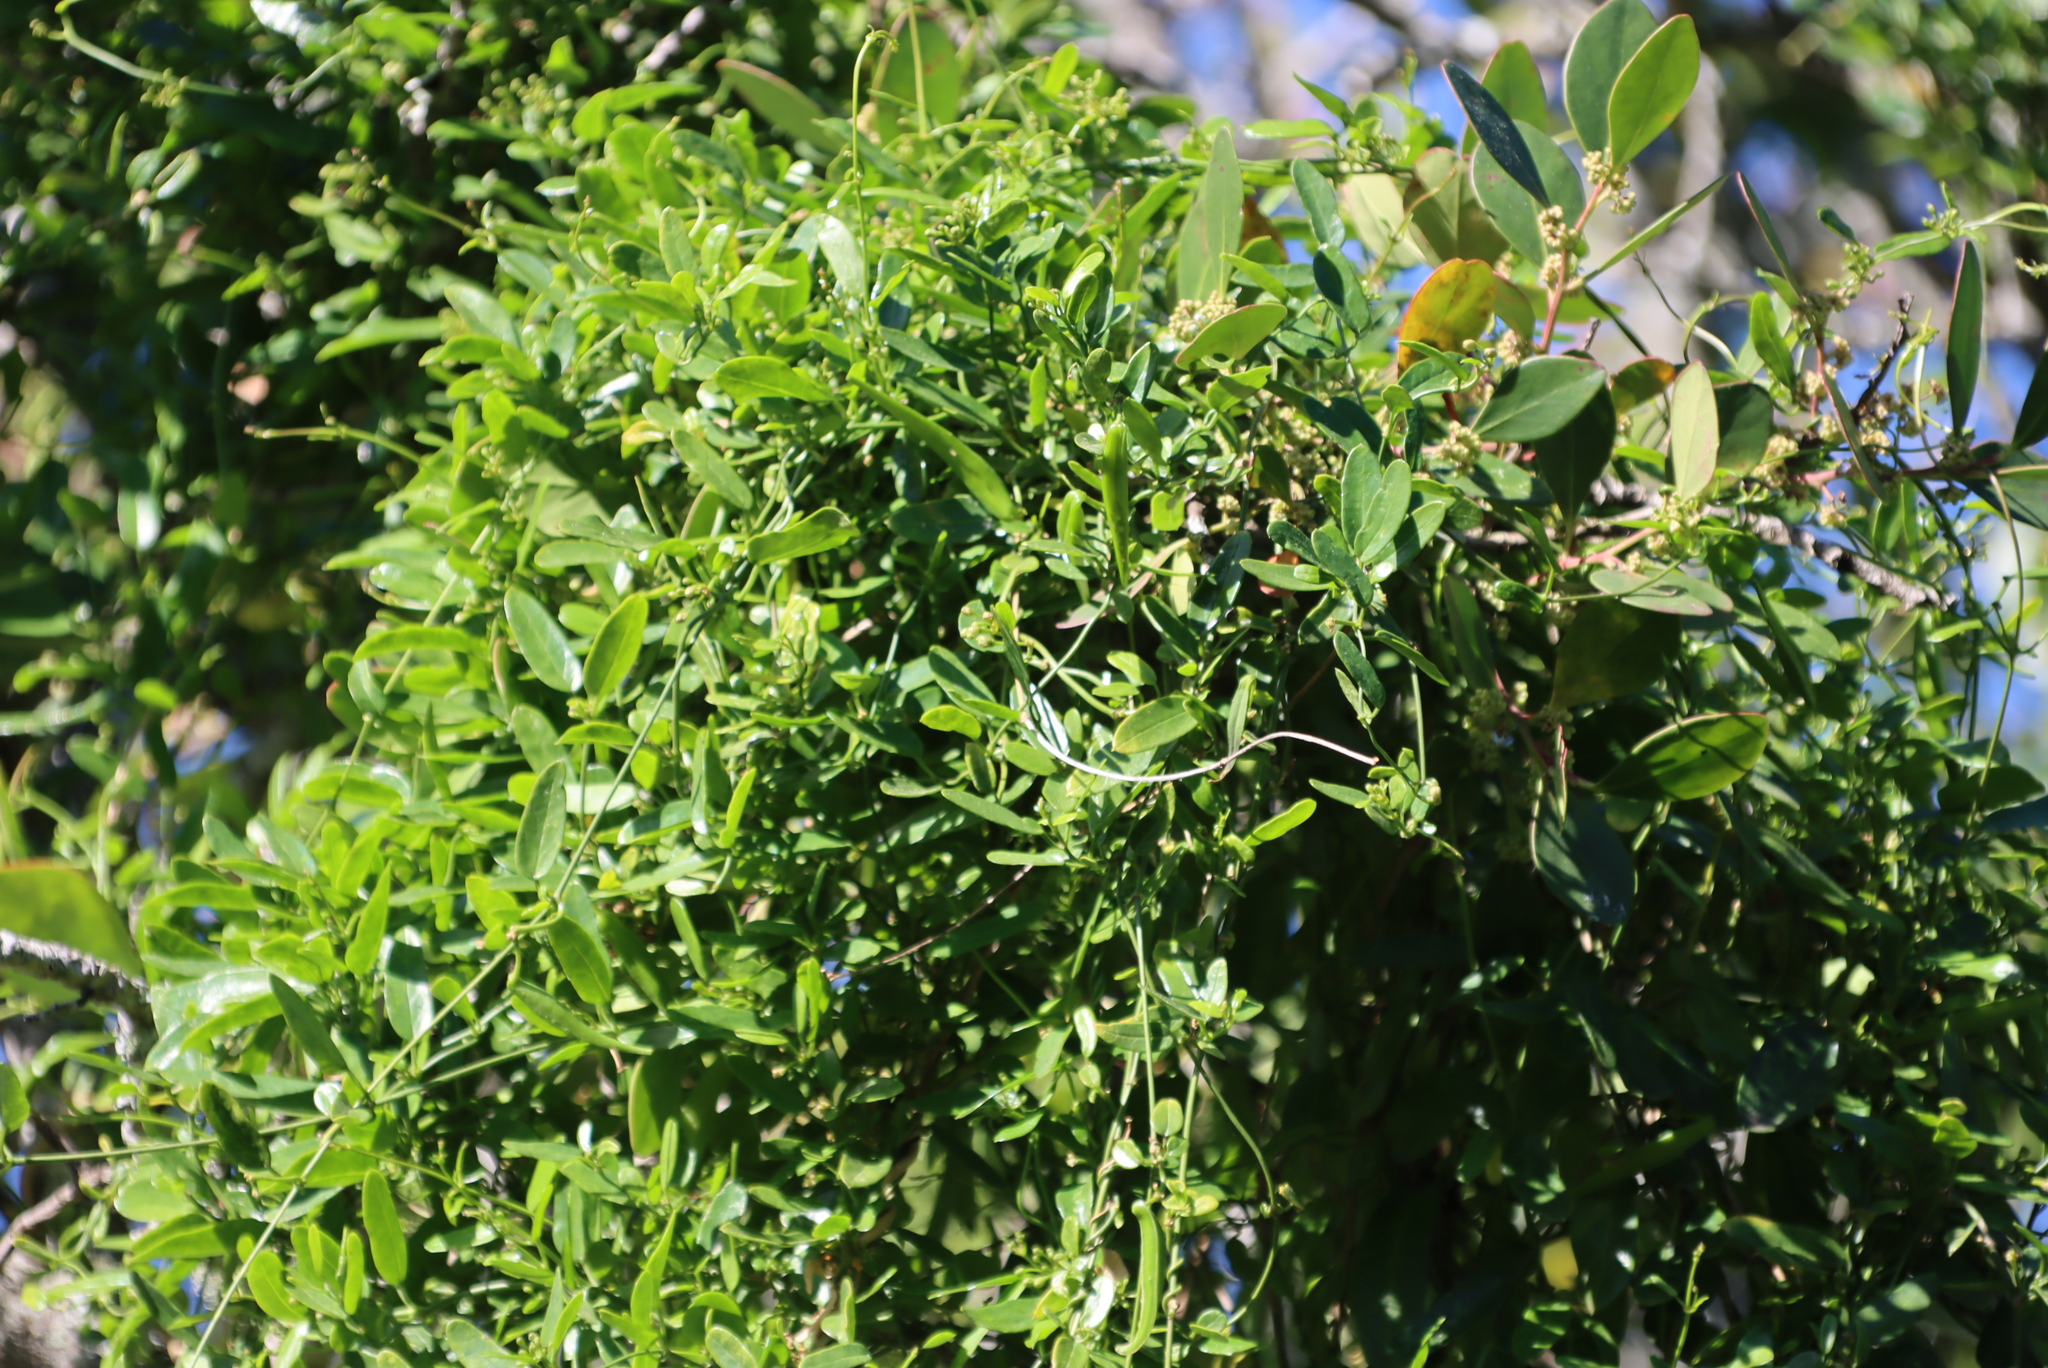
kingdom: Plantae
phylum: Tracheophyta
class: Magnoliopsida
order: Gentianales
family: Apocynaceae
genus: Secamone
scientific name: Secamone alpini
